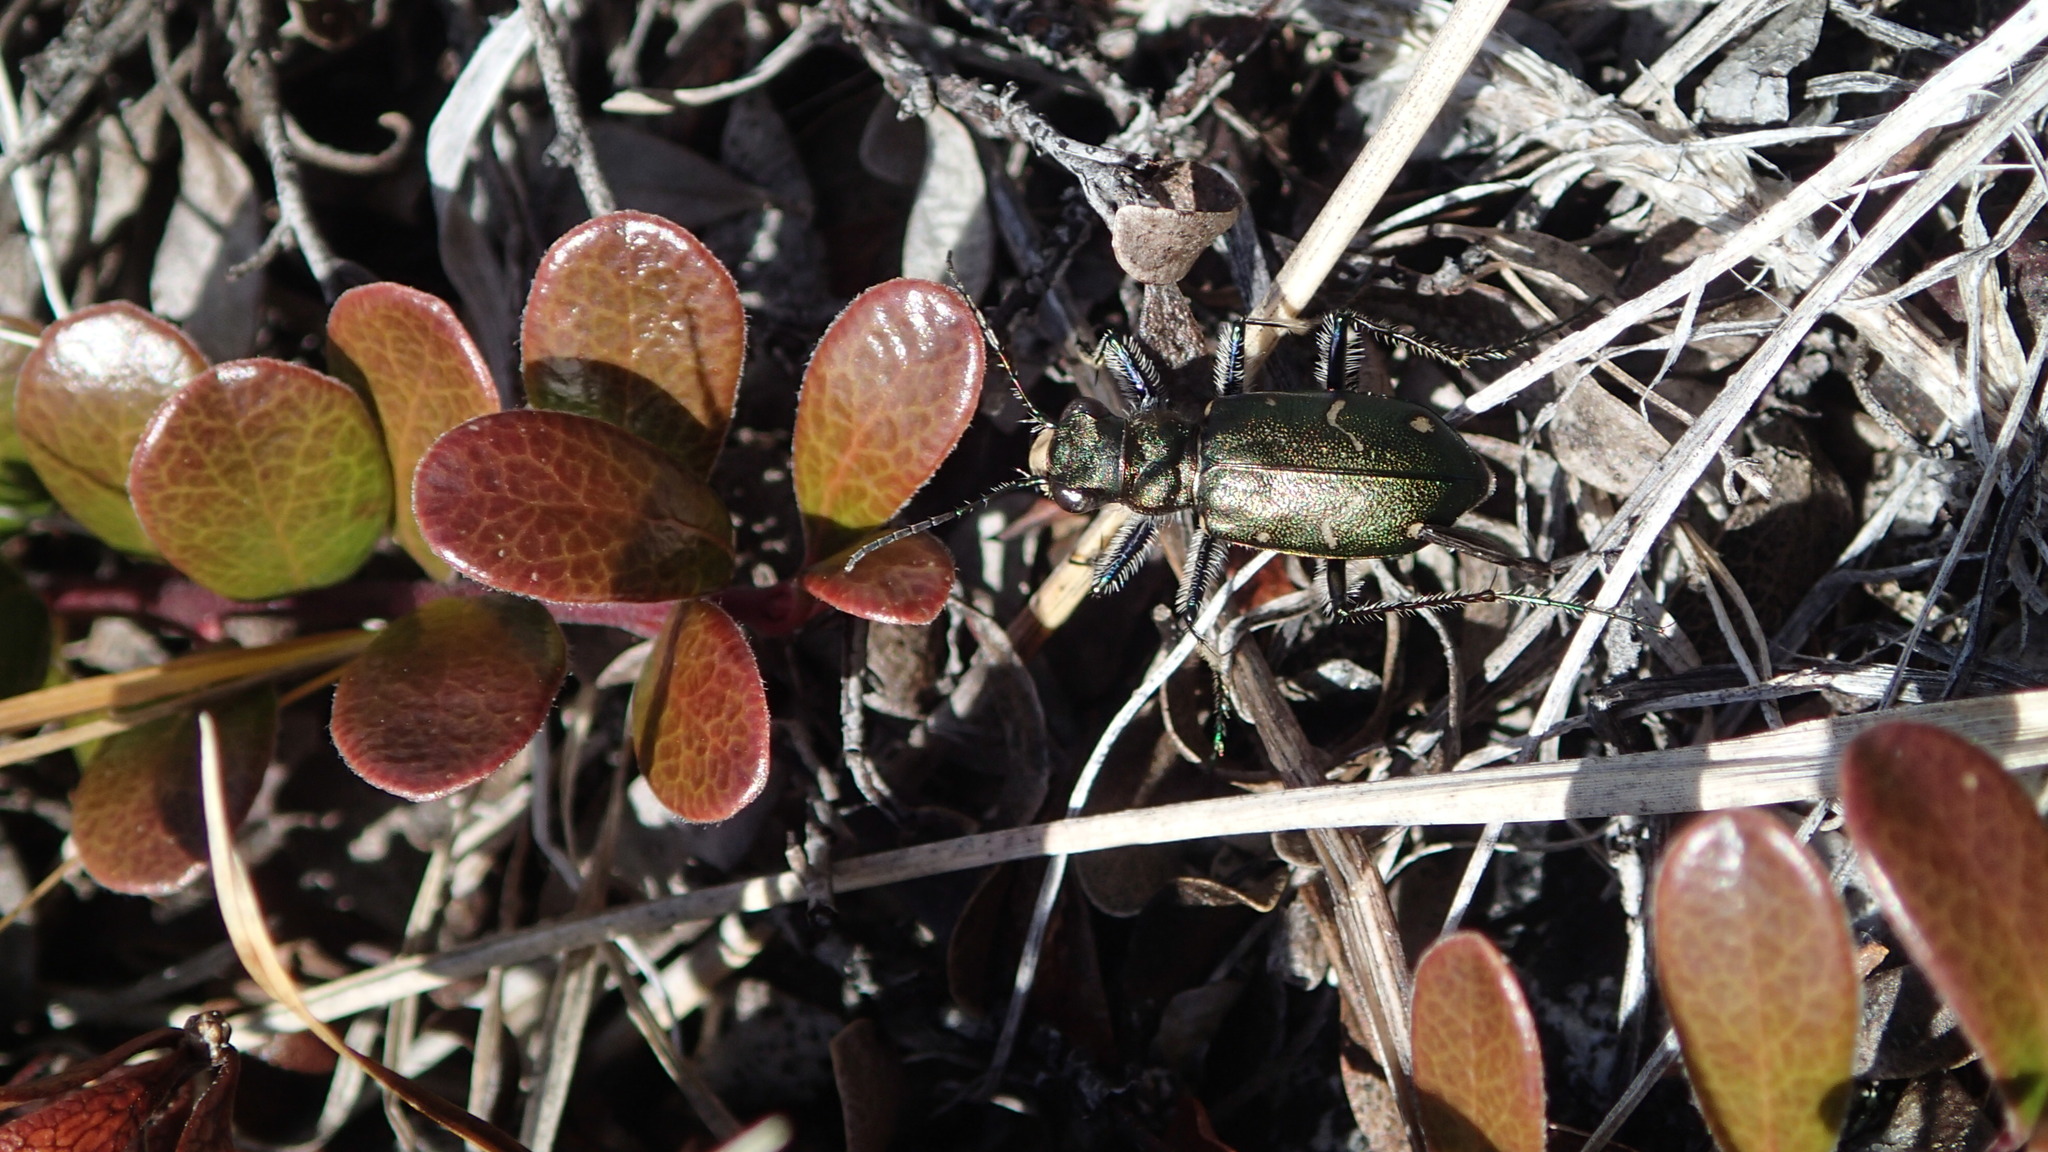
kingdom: Animalia
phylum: Arthropoda
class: Insecta
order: Coleoptera
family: Carabidae
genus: Cicindela
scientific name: Cicindela longilabris
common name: Boreal long-lipped tiger beetle
